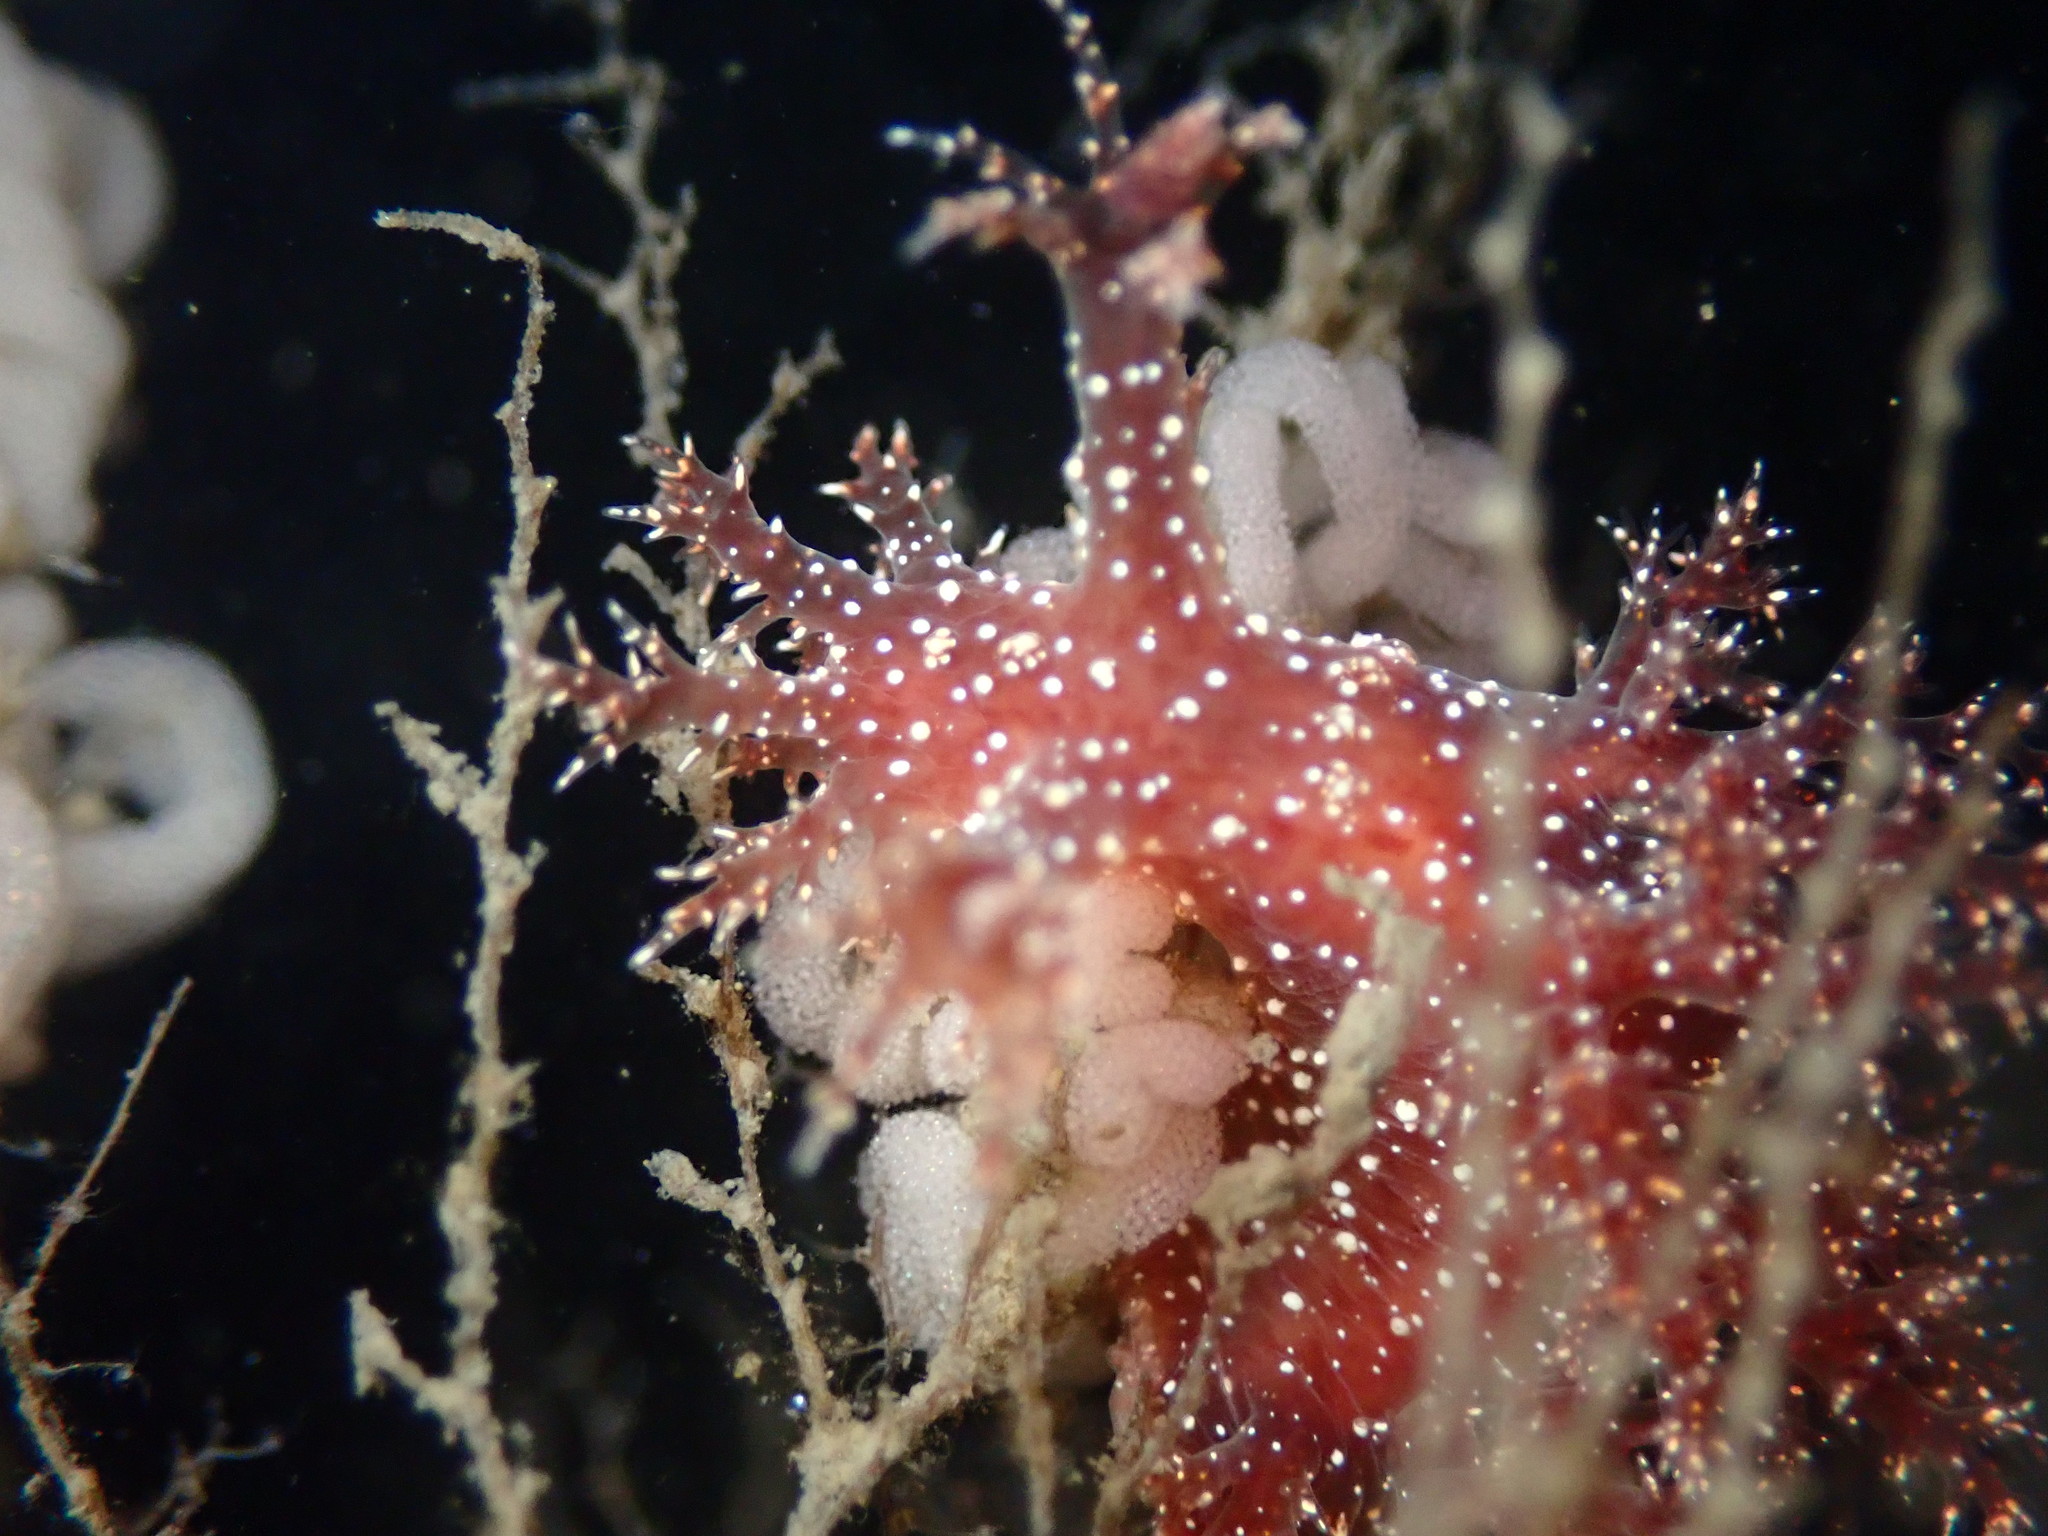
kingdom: Animalia
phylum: Mollusca
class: Gastropoda
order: Nudibranchia
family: Dendronotidae
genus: Dendronotus
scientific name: Dendronotus venustus
